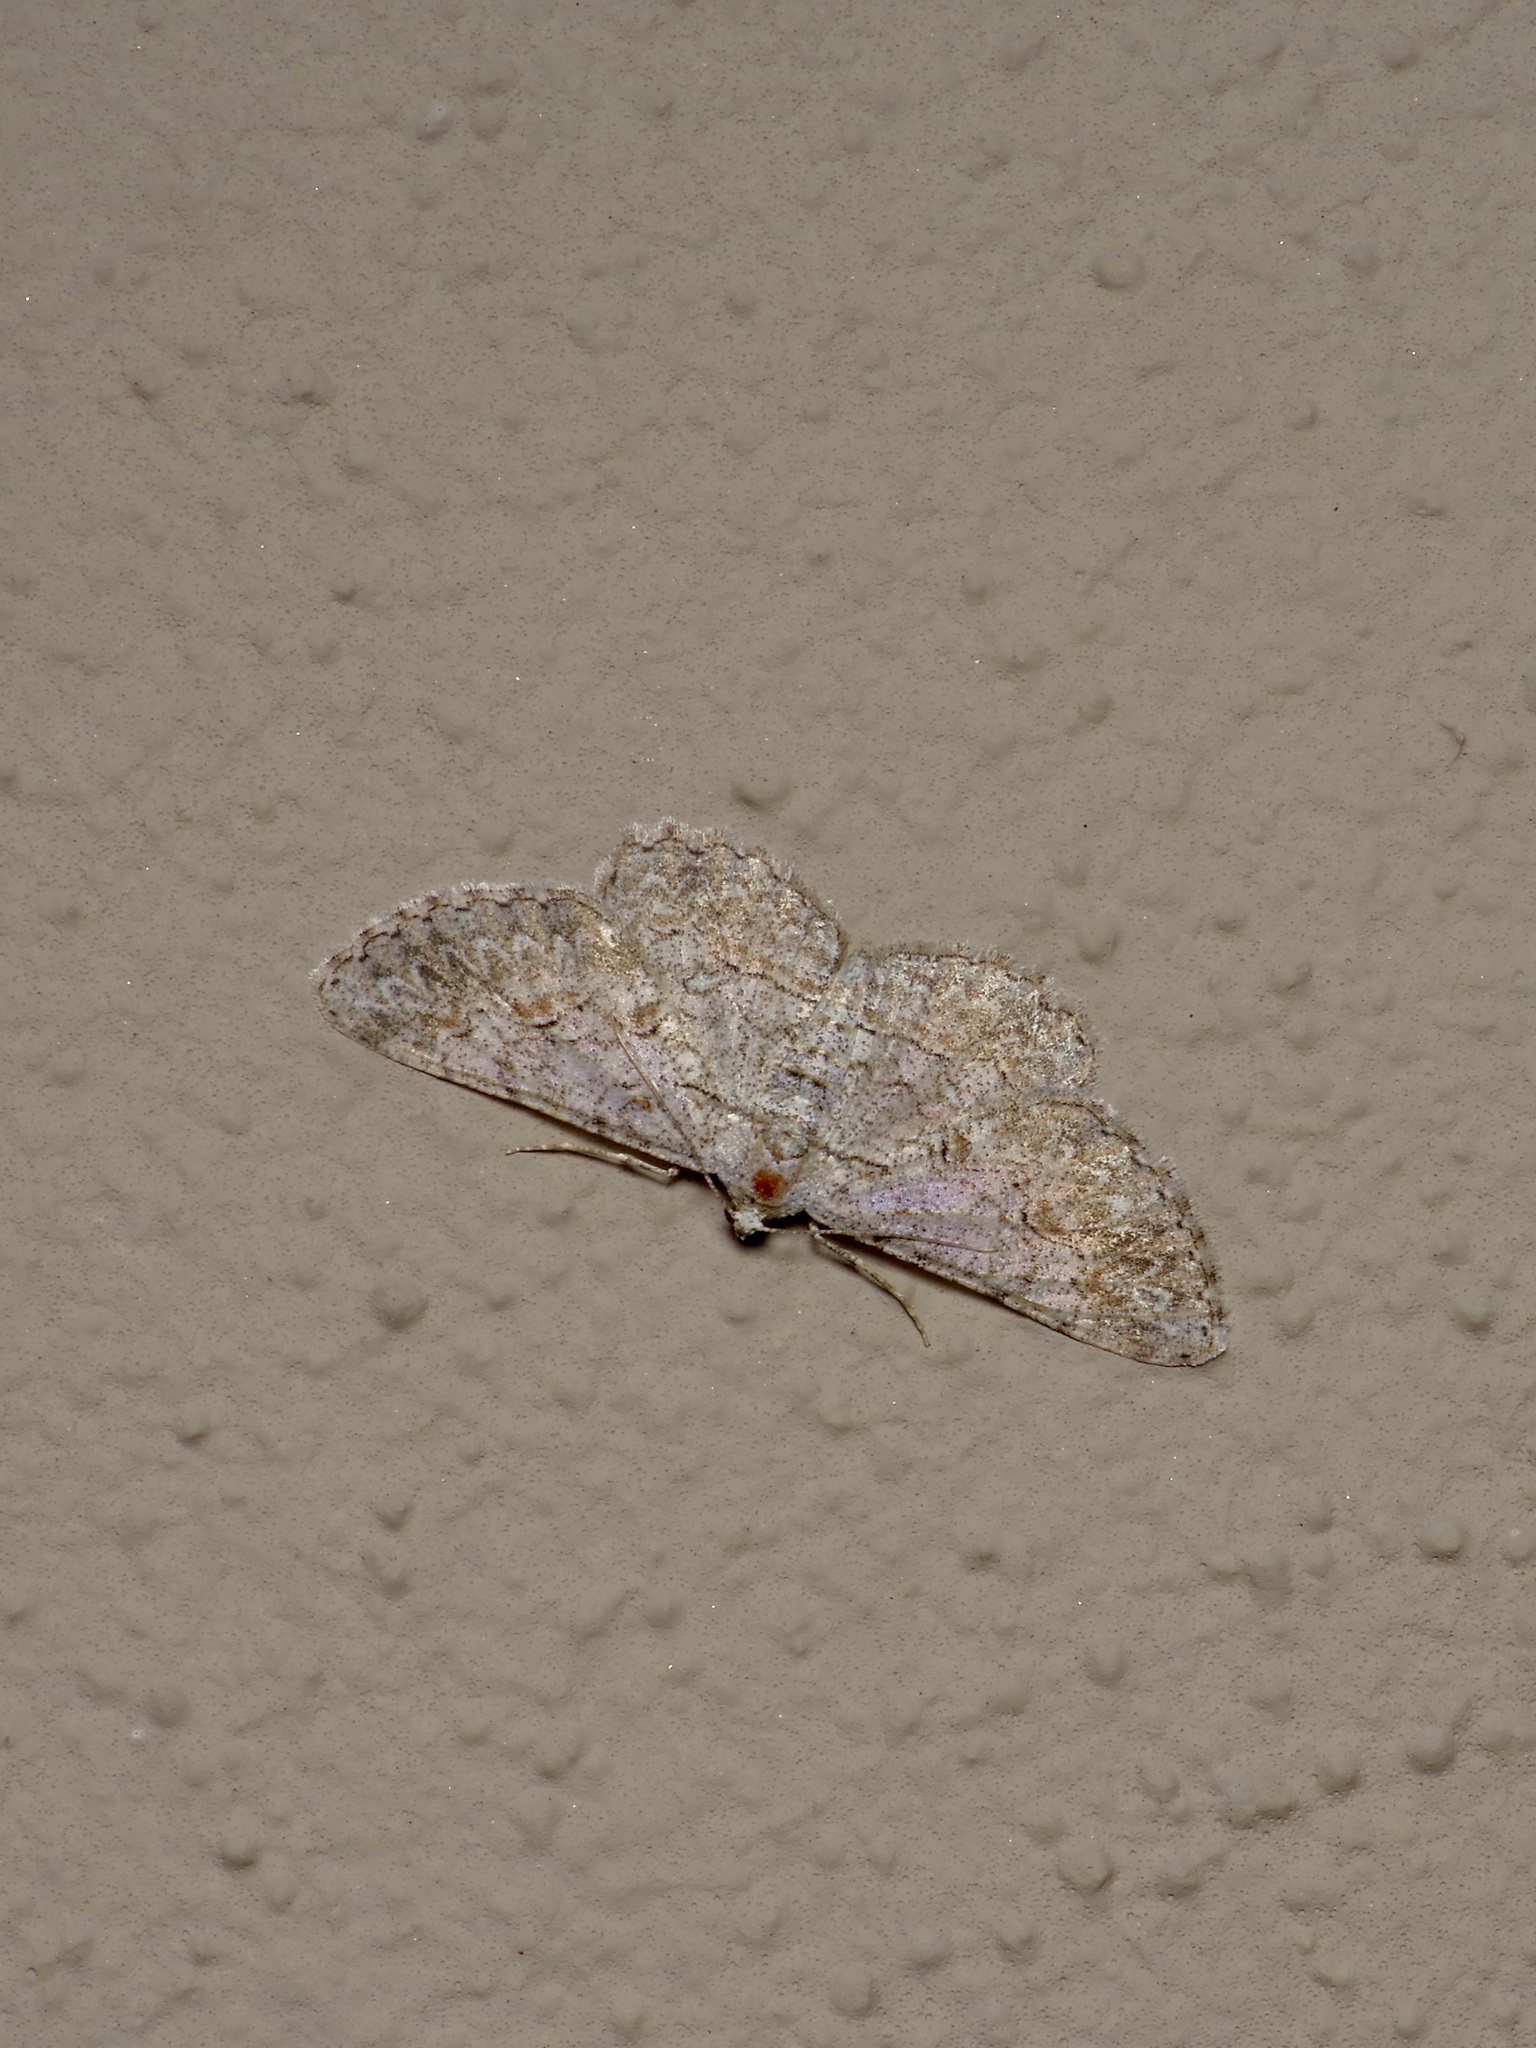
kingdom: Animalia
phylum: Arthropoda
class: Insecta
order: Lepidoptera
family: Geometridae
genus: Iridopsis
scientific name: Iridopsis defectaria
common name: Brown-shaded gray
